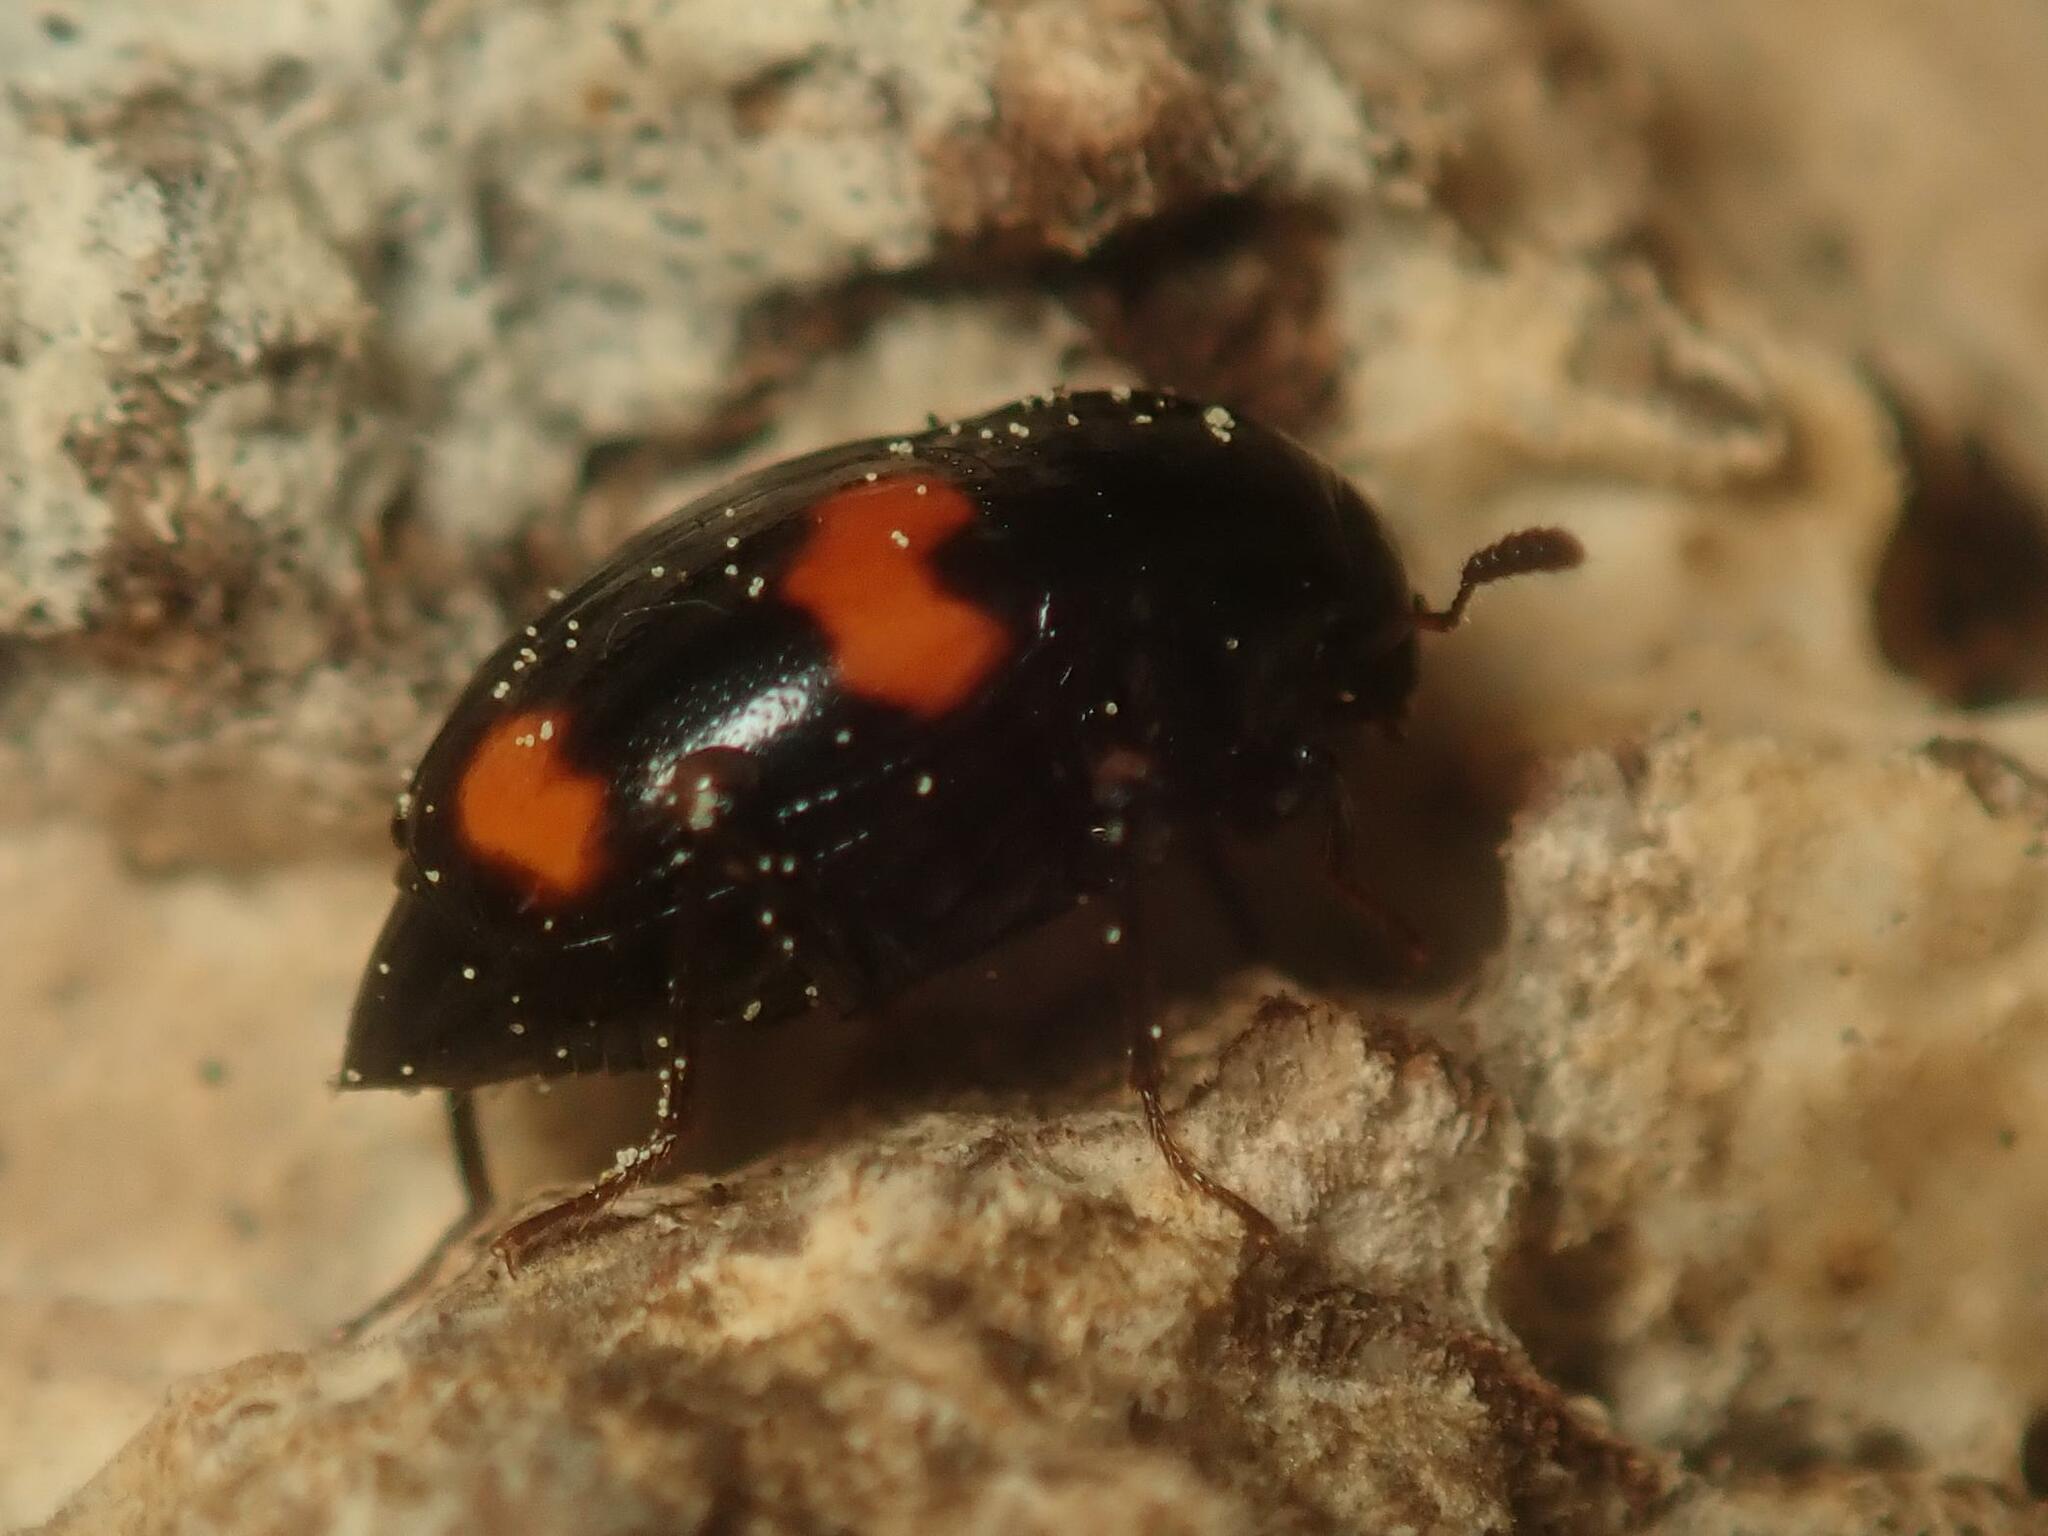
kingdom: Animalia
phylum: Arthropoda
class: Insecta
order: Coleoptera
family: Staphylinidae
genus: Scaphidium
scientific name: Scaphidium quadrimaculatum
